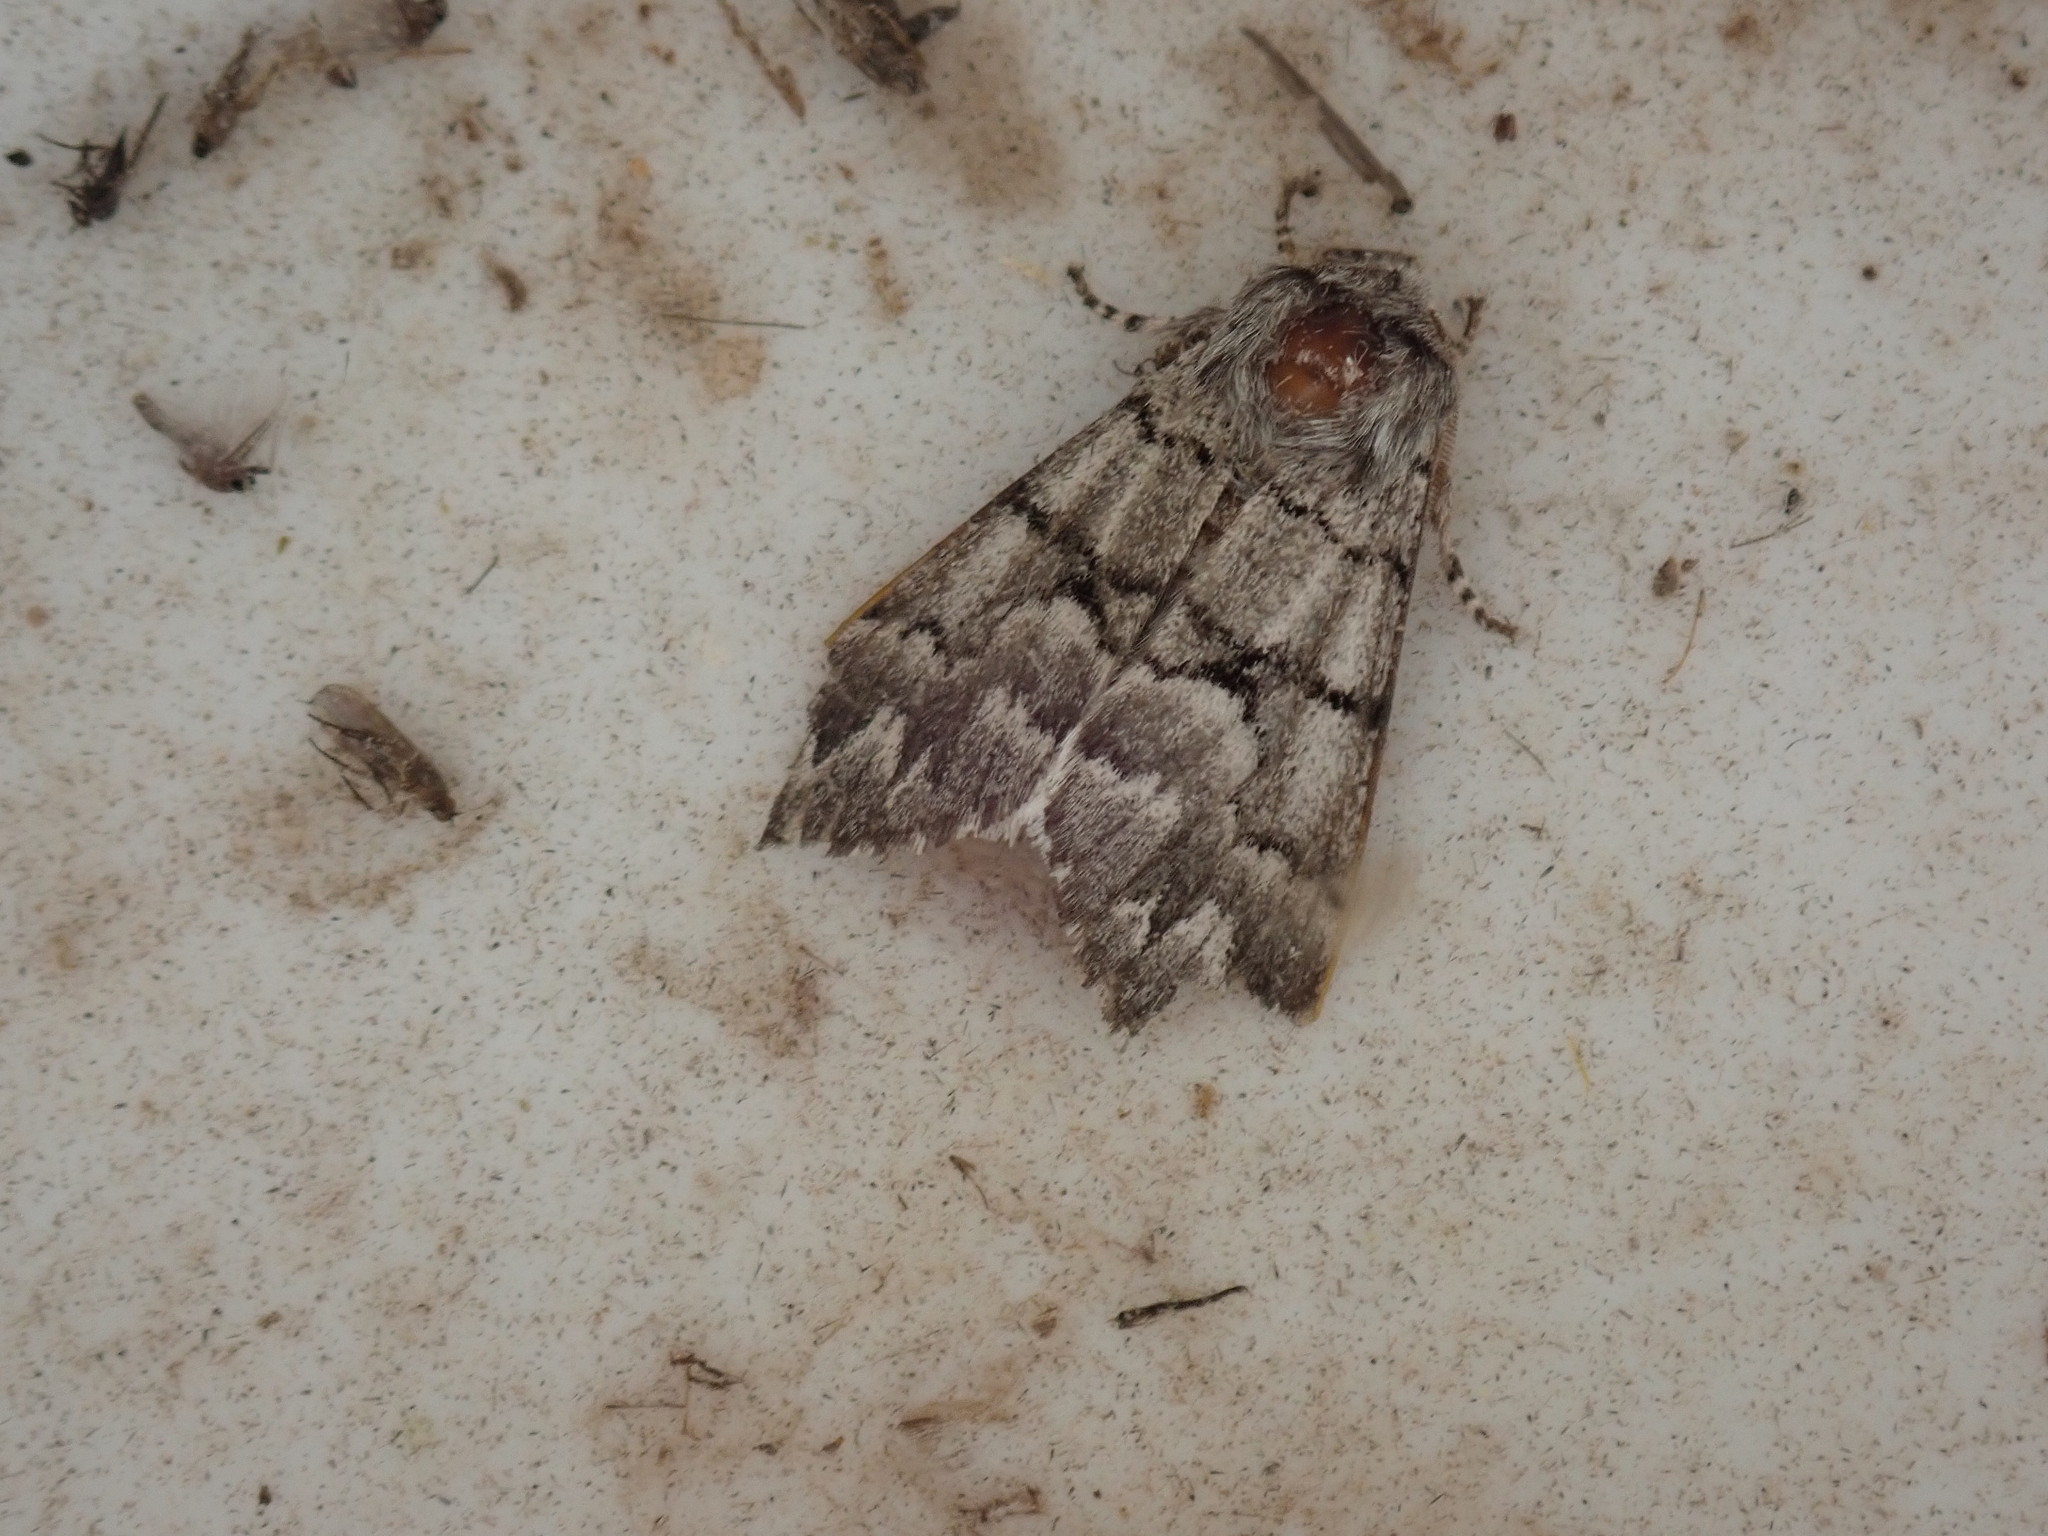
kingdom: Animalia
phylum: Arthropoda
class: Insecta
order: Lepidoptera
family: Noctuidae
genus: Panthea
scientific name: Panthea furcilla
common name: Eastern panthea moth
